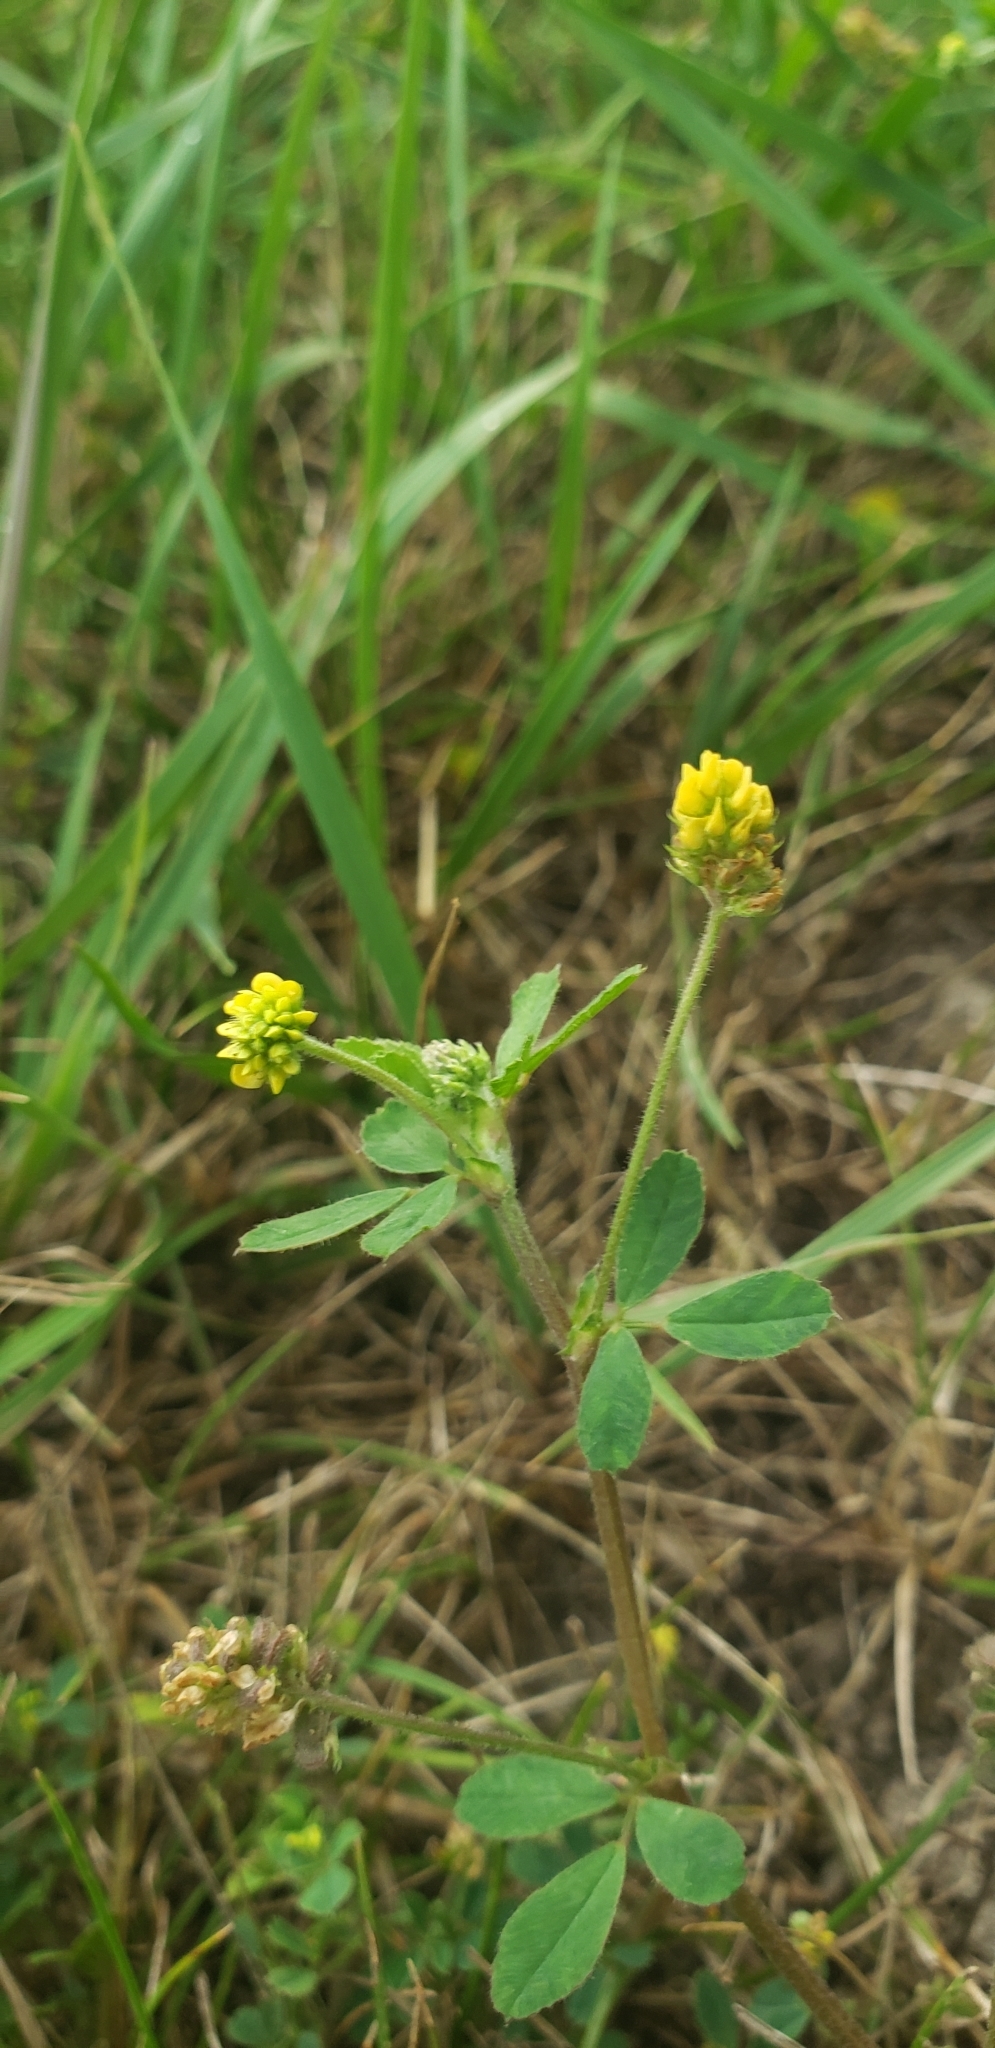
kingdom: Plantae
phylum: Tracheophyta
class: Magnoliopsida
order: Fabales
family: Fabaceae
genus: Medicago
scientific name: Medicago lupulina
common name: Black medick
